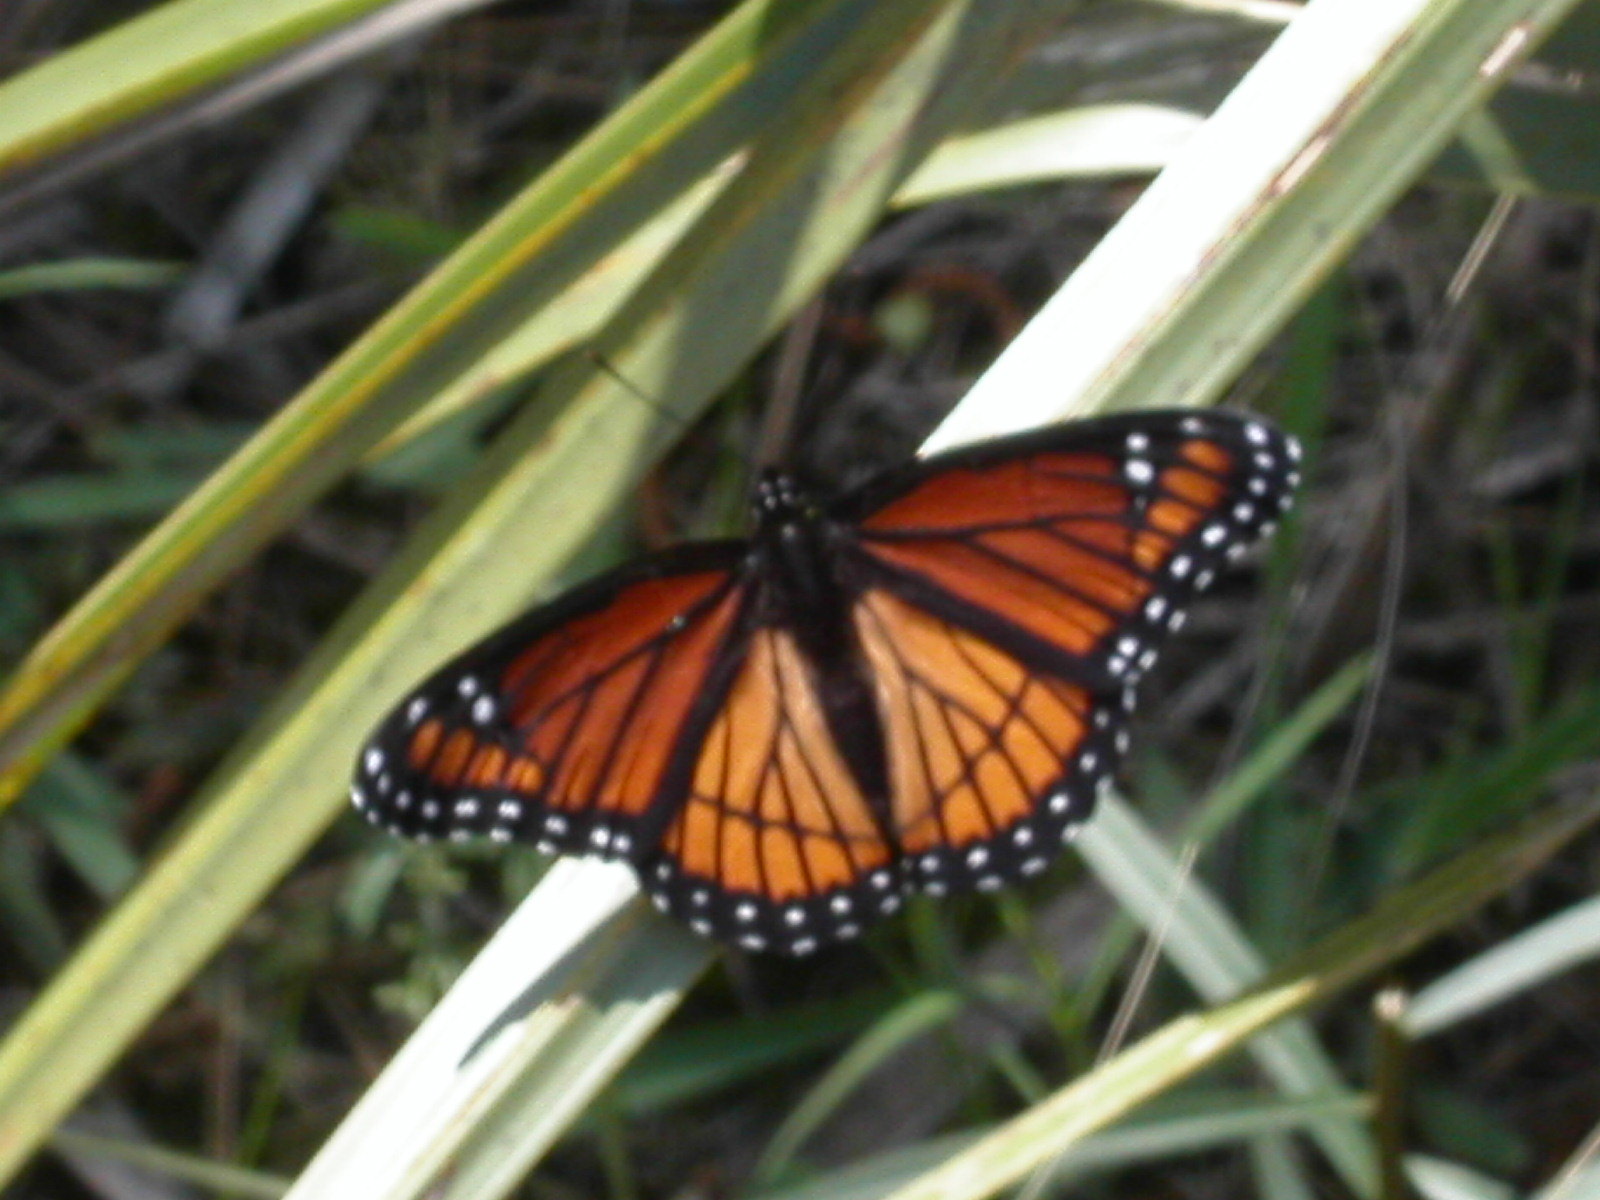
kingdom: Animalia
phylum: Arthropoda
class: Insecta
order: Lepidoptera
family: Nymphalidae
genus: Limenitis
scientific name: Limenitis archippus
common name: Viceroy
